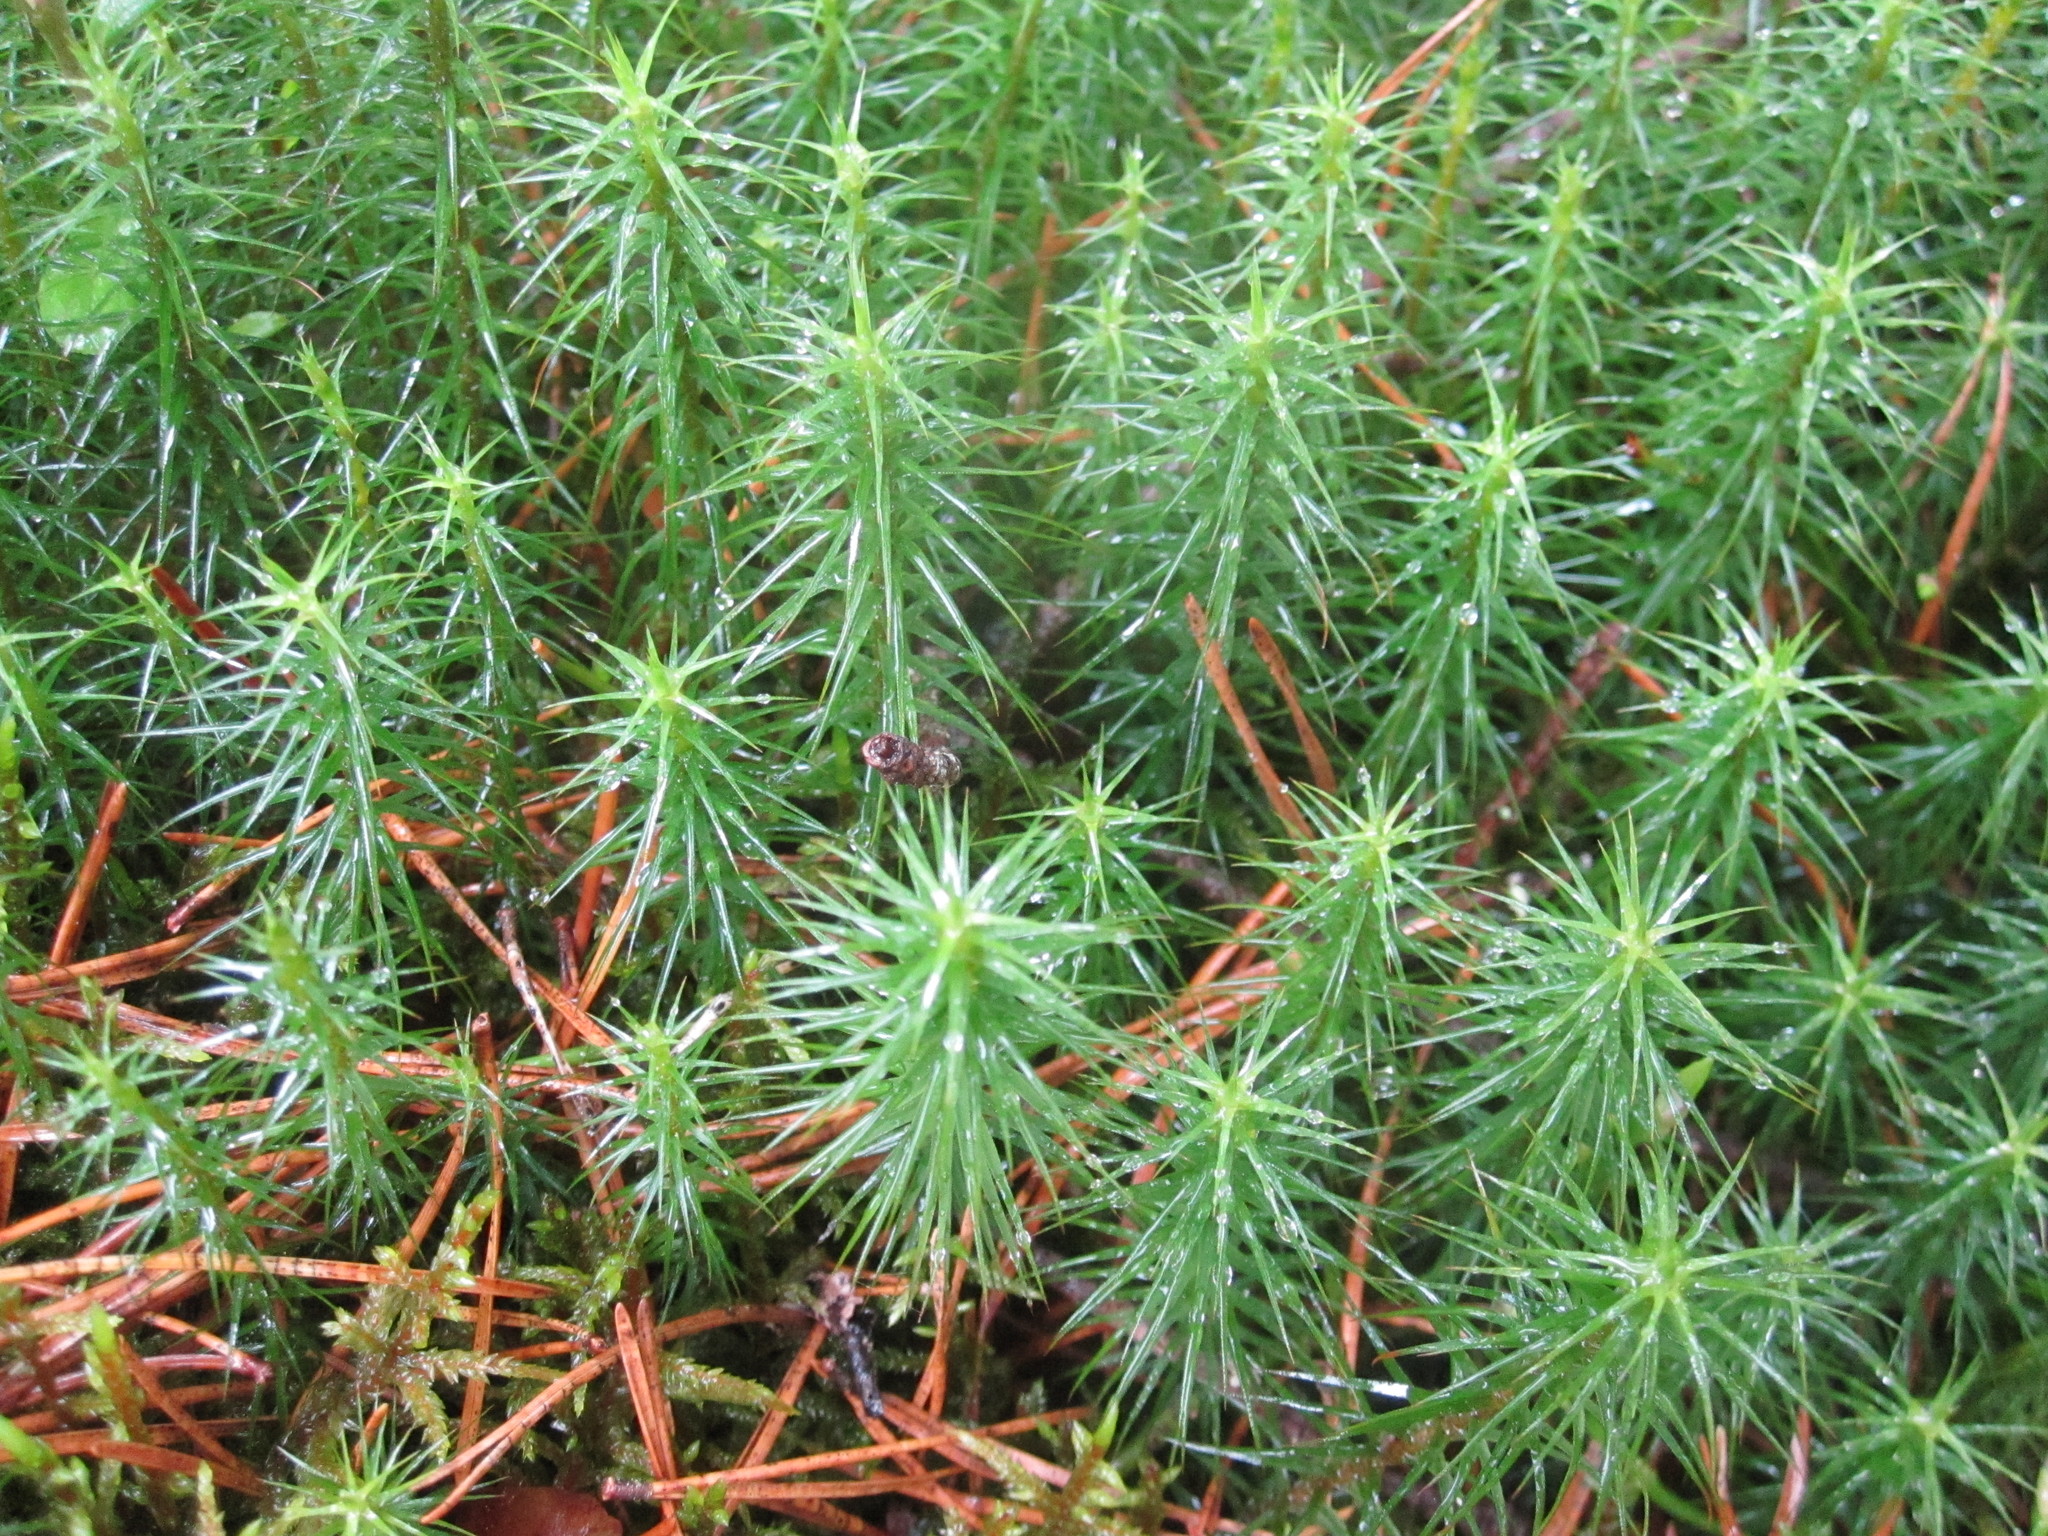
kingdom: Plantae
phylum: Bryophyta
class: Polytrichopsida
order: Polytrichales
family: Polytrichaceae
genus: Polytrichum
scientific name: Polytrichum commune
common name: Common haircap
